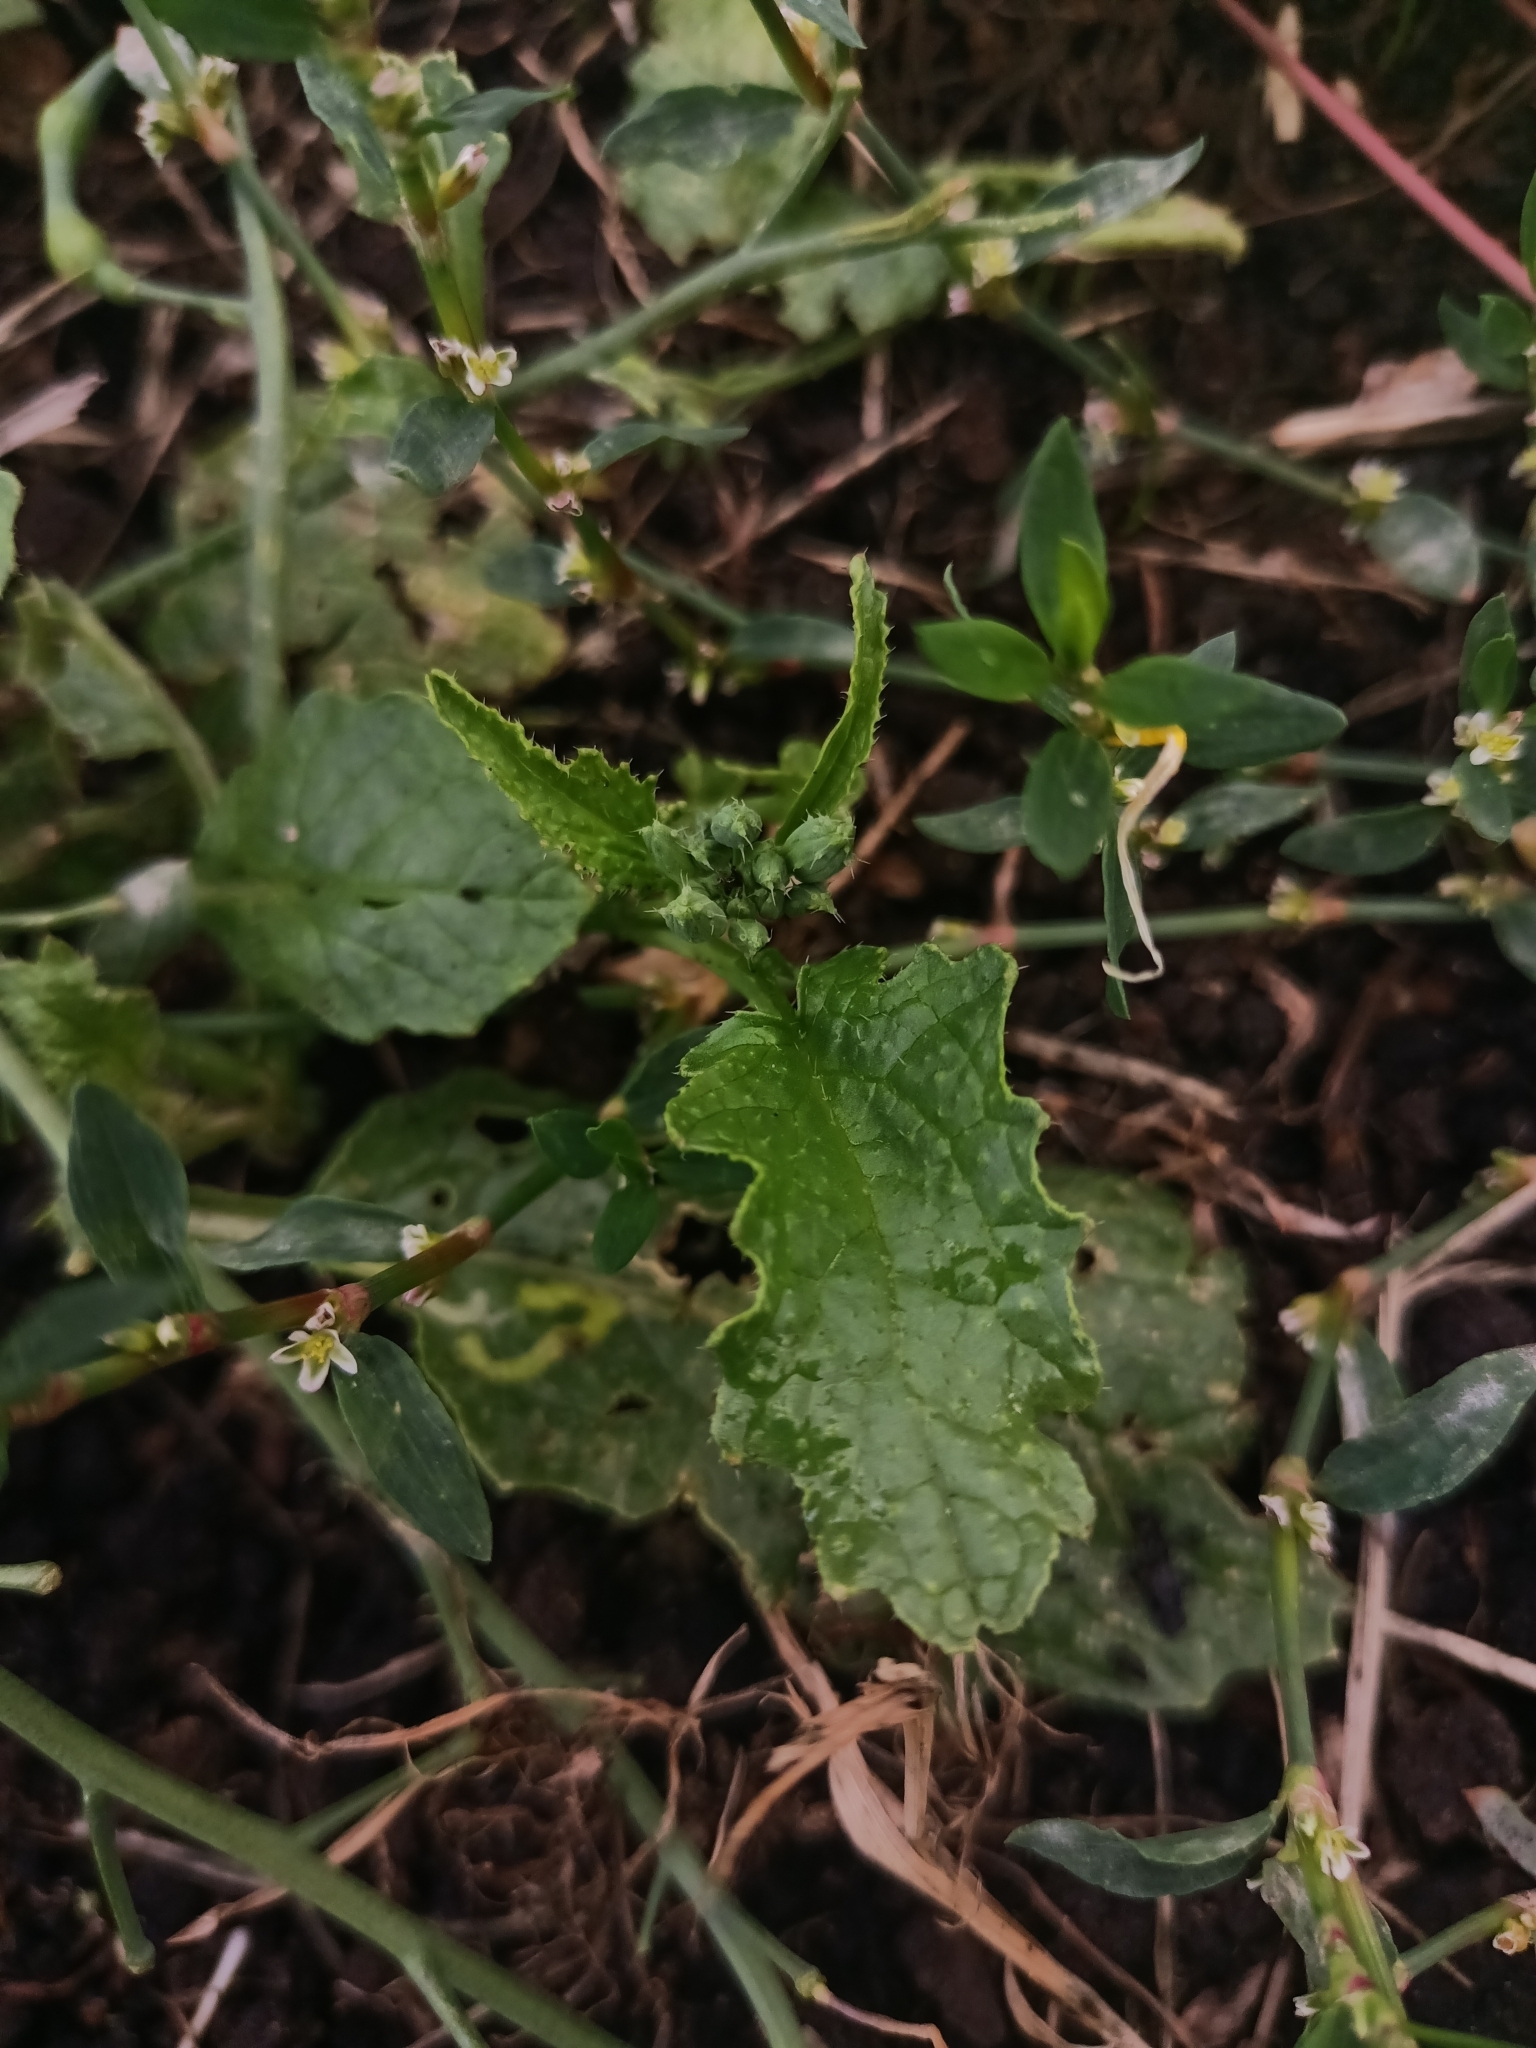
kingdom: Plantae
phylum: Tracheophyta
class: Magnoliopsida
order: Brassicales
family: Brassicaceae
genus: Raphanus
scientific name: Raphanus raphanistrum
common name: Wild radish
